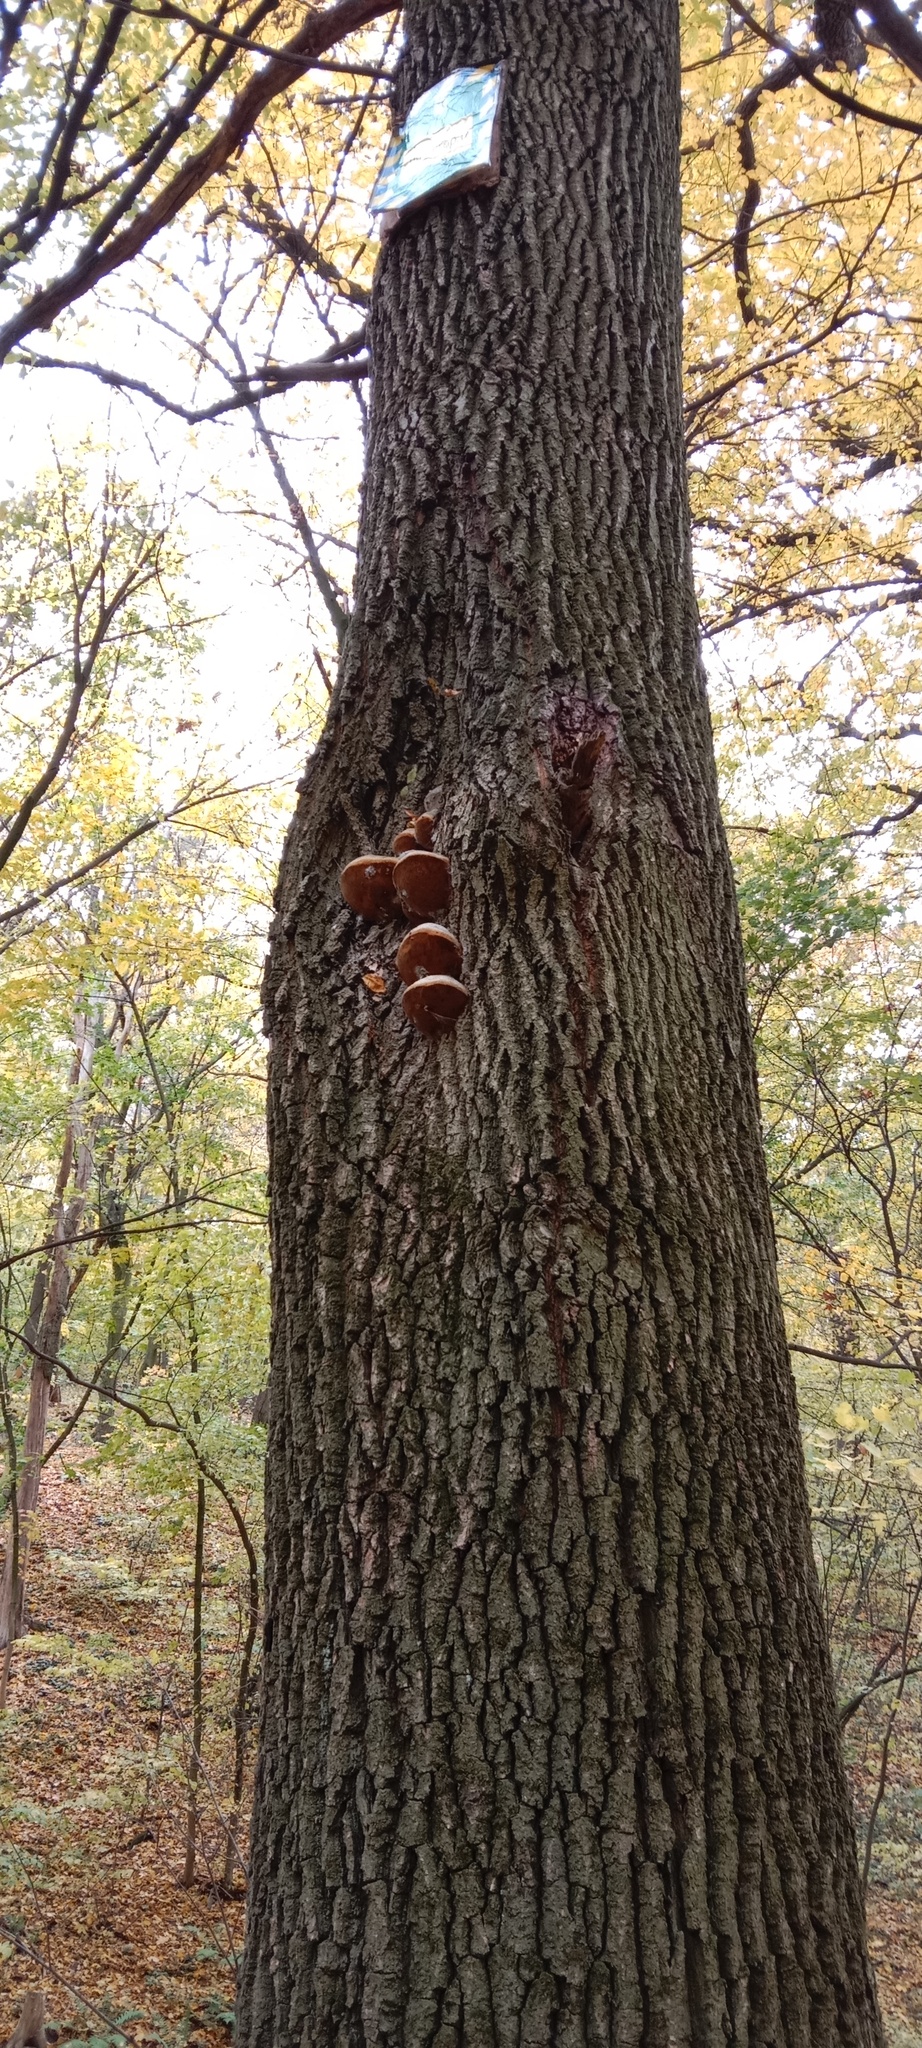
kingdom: Fungi
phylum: Basidiomycota
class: Agaricomycetes
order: Hymenochaetales
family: Hymenochaetaceae
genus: Fomitiporia
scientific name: Fomitiporia robusta
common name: Robust bracket
